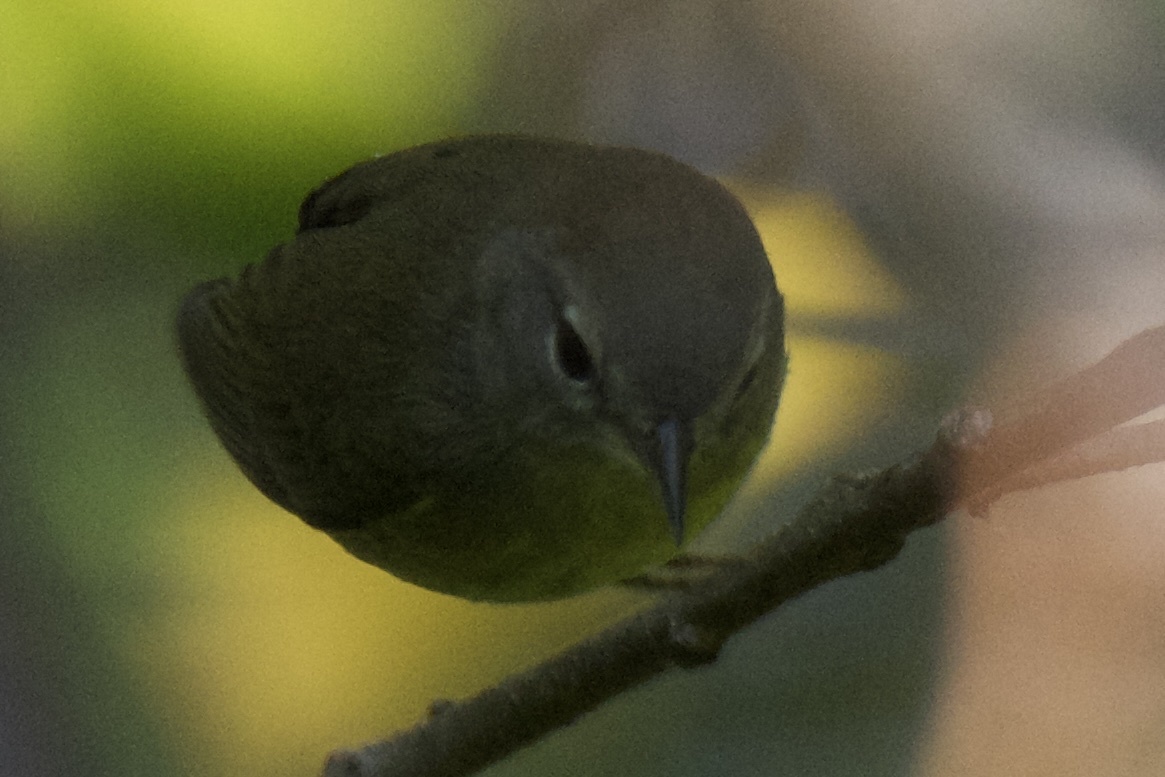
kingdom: Animalia
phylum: Chordata
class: Aves
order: Passeriformes
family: Parulidae
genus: Leiothlypis
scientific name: Leiothlypis ruficapilla
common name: Nashville warbler
